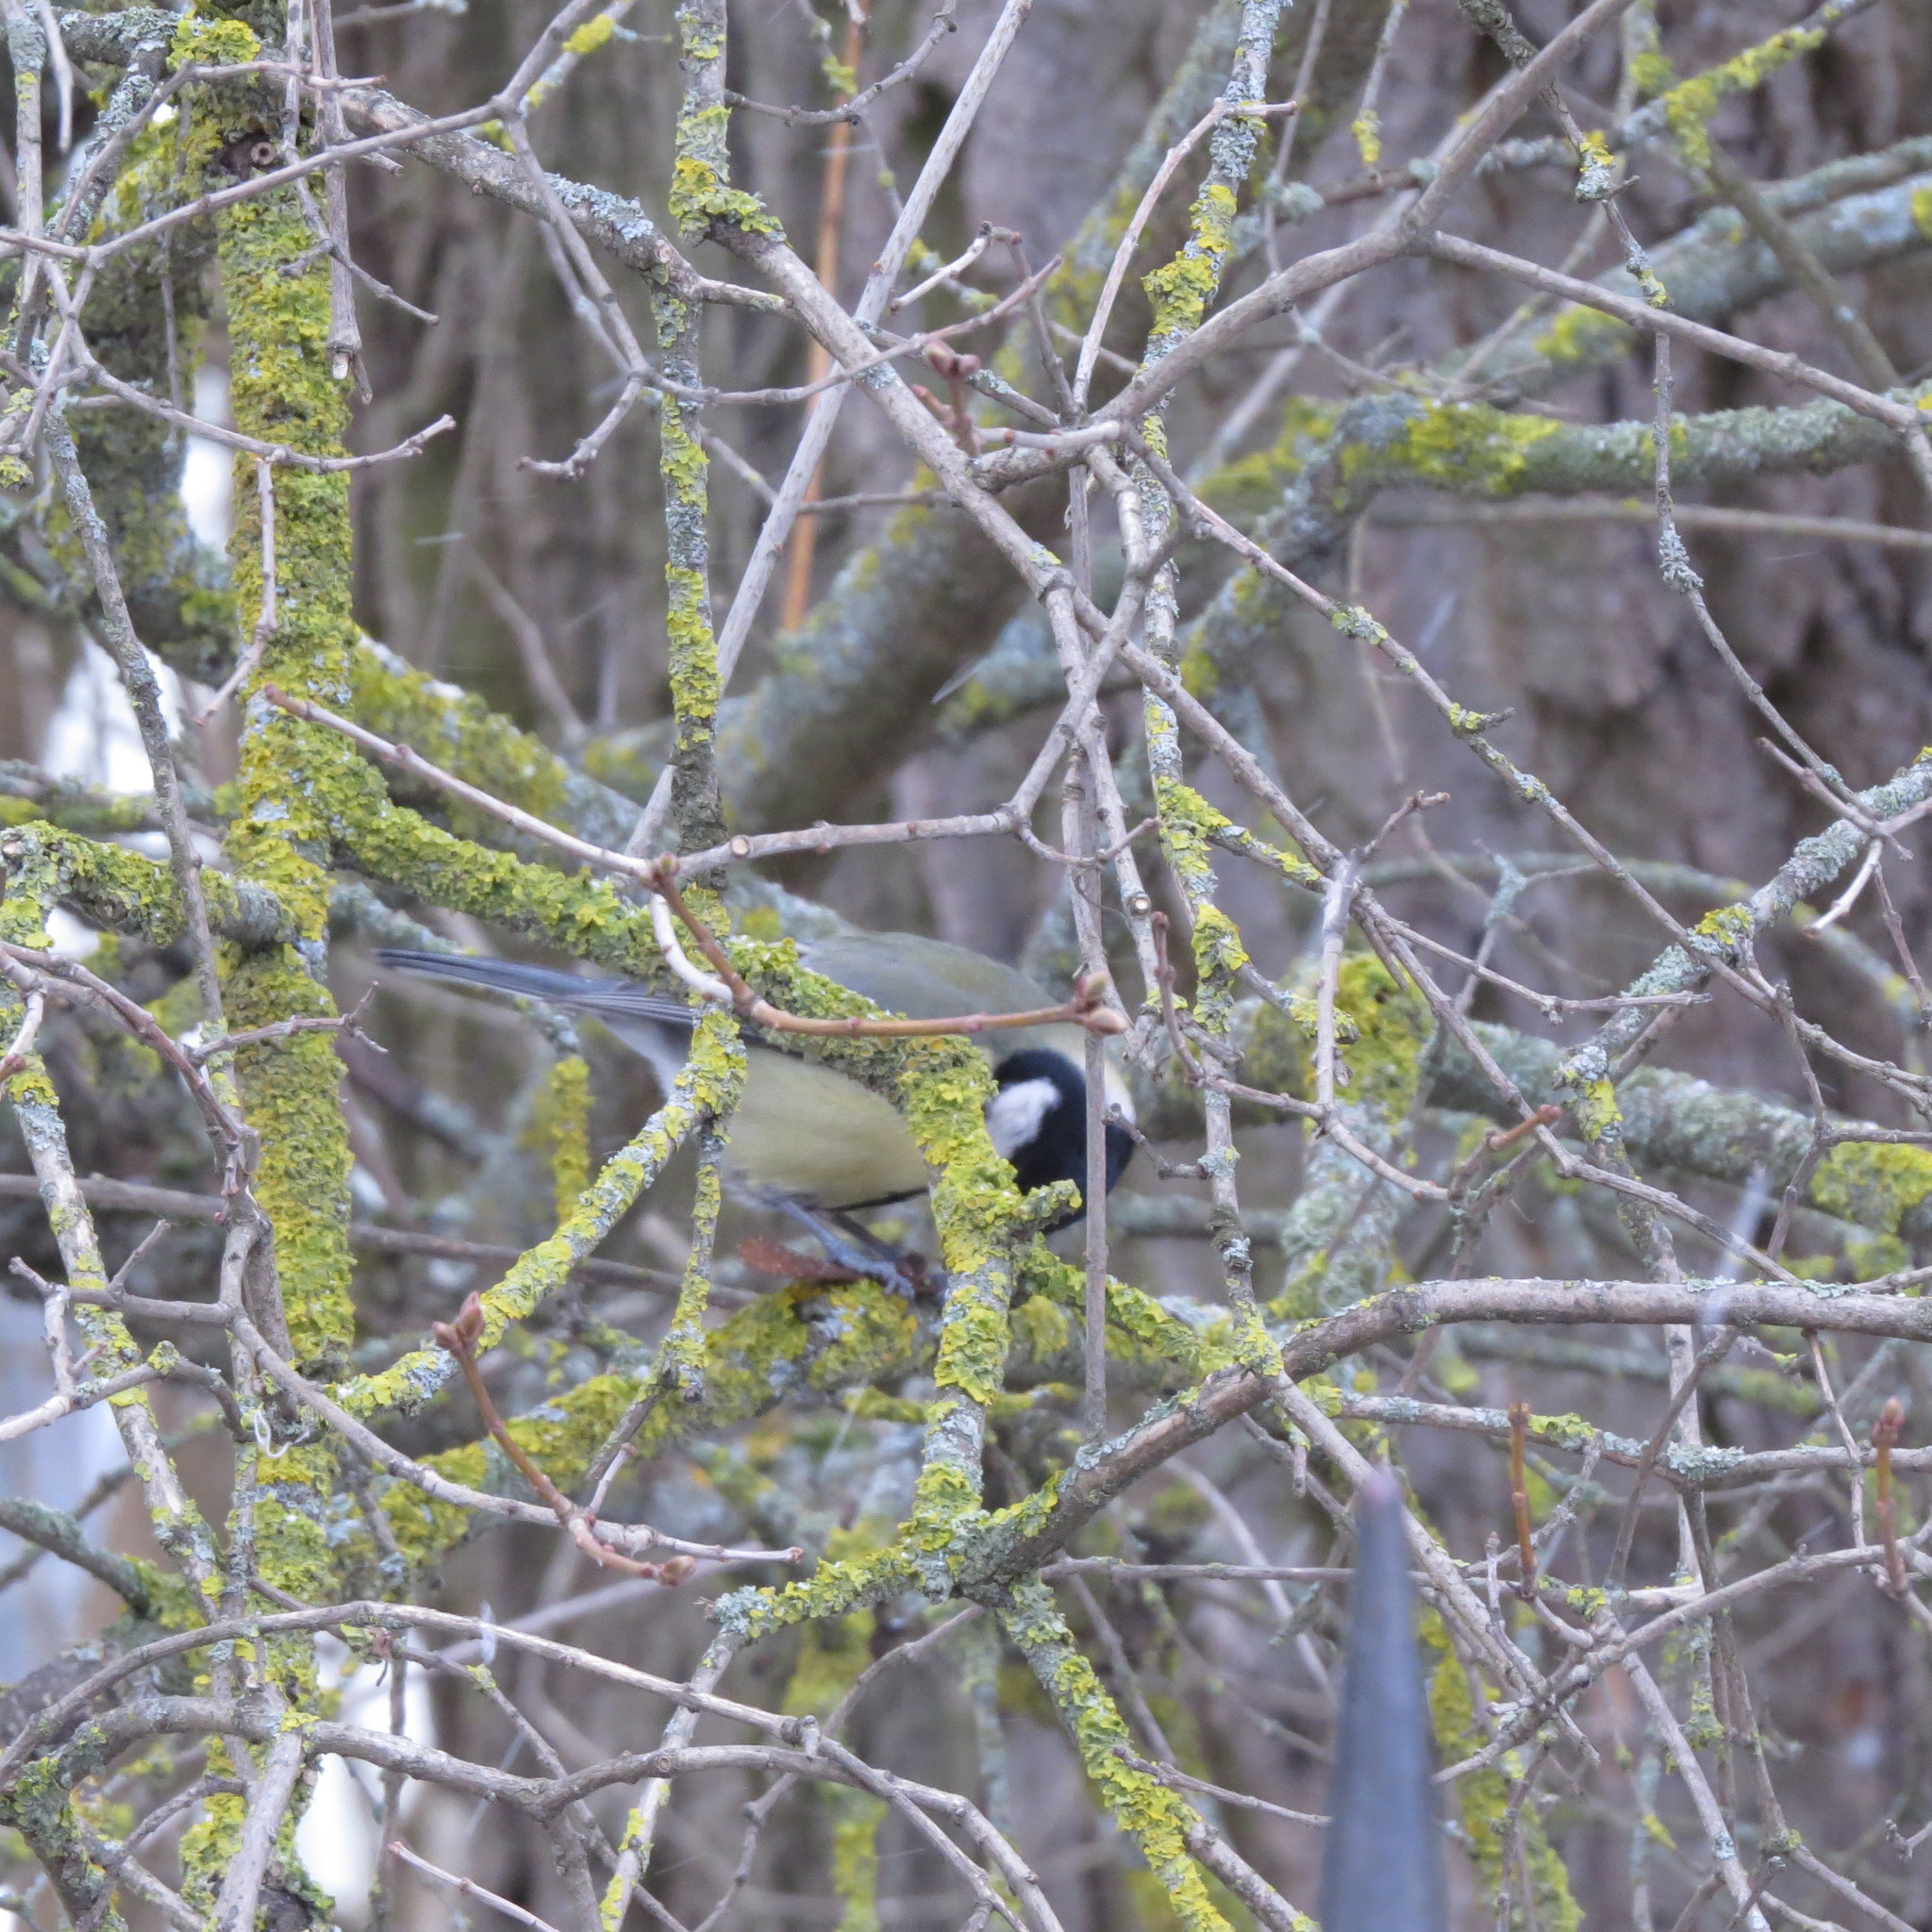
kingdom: Animalia
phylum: Chordata
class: Aves
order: Passeriformes
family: Paridae
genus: Parus
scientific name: Parus major
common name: Great tit
